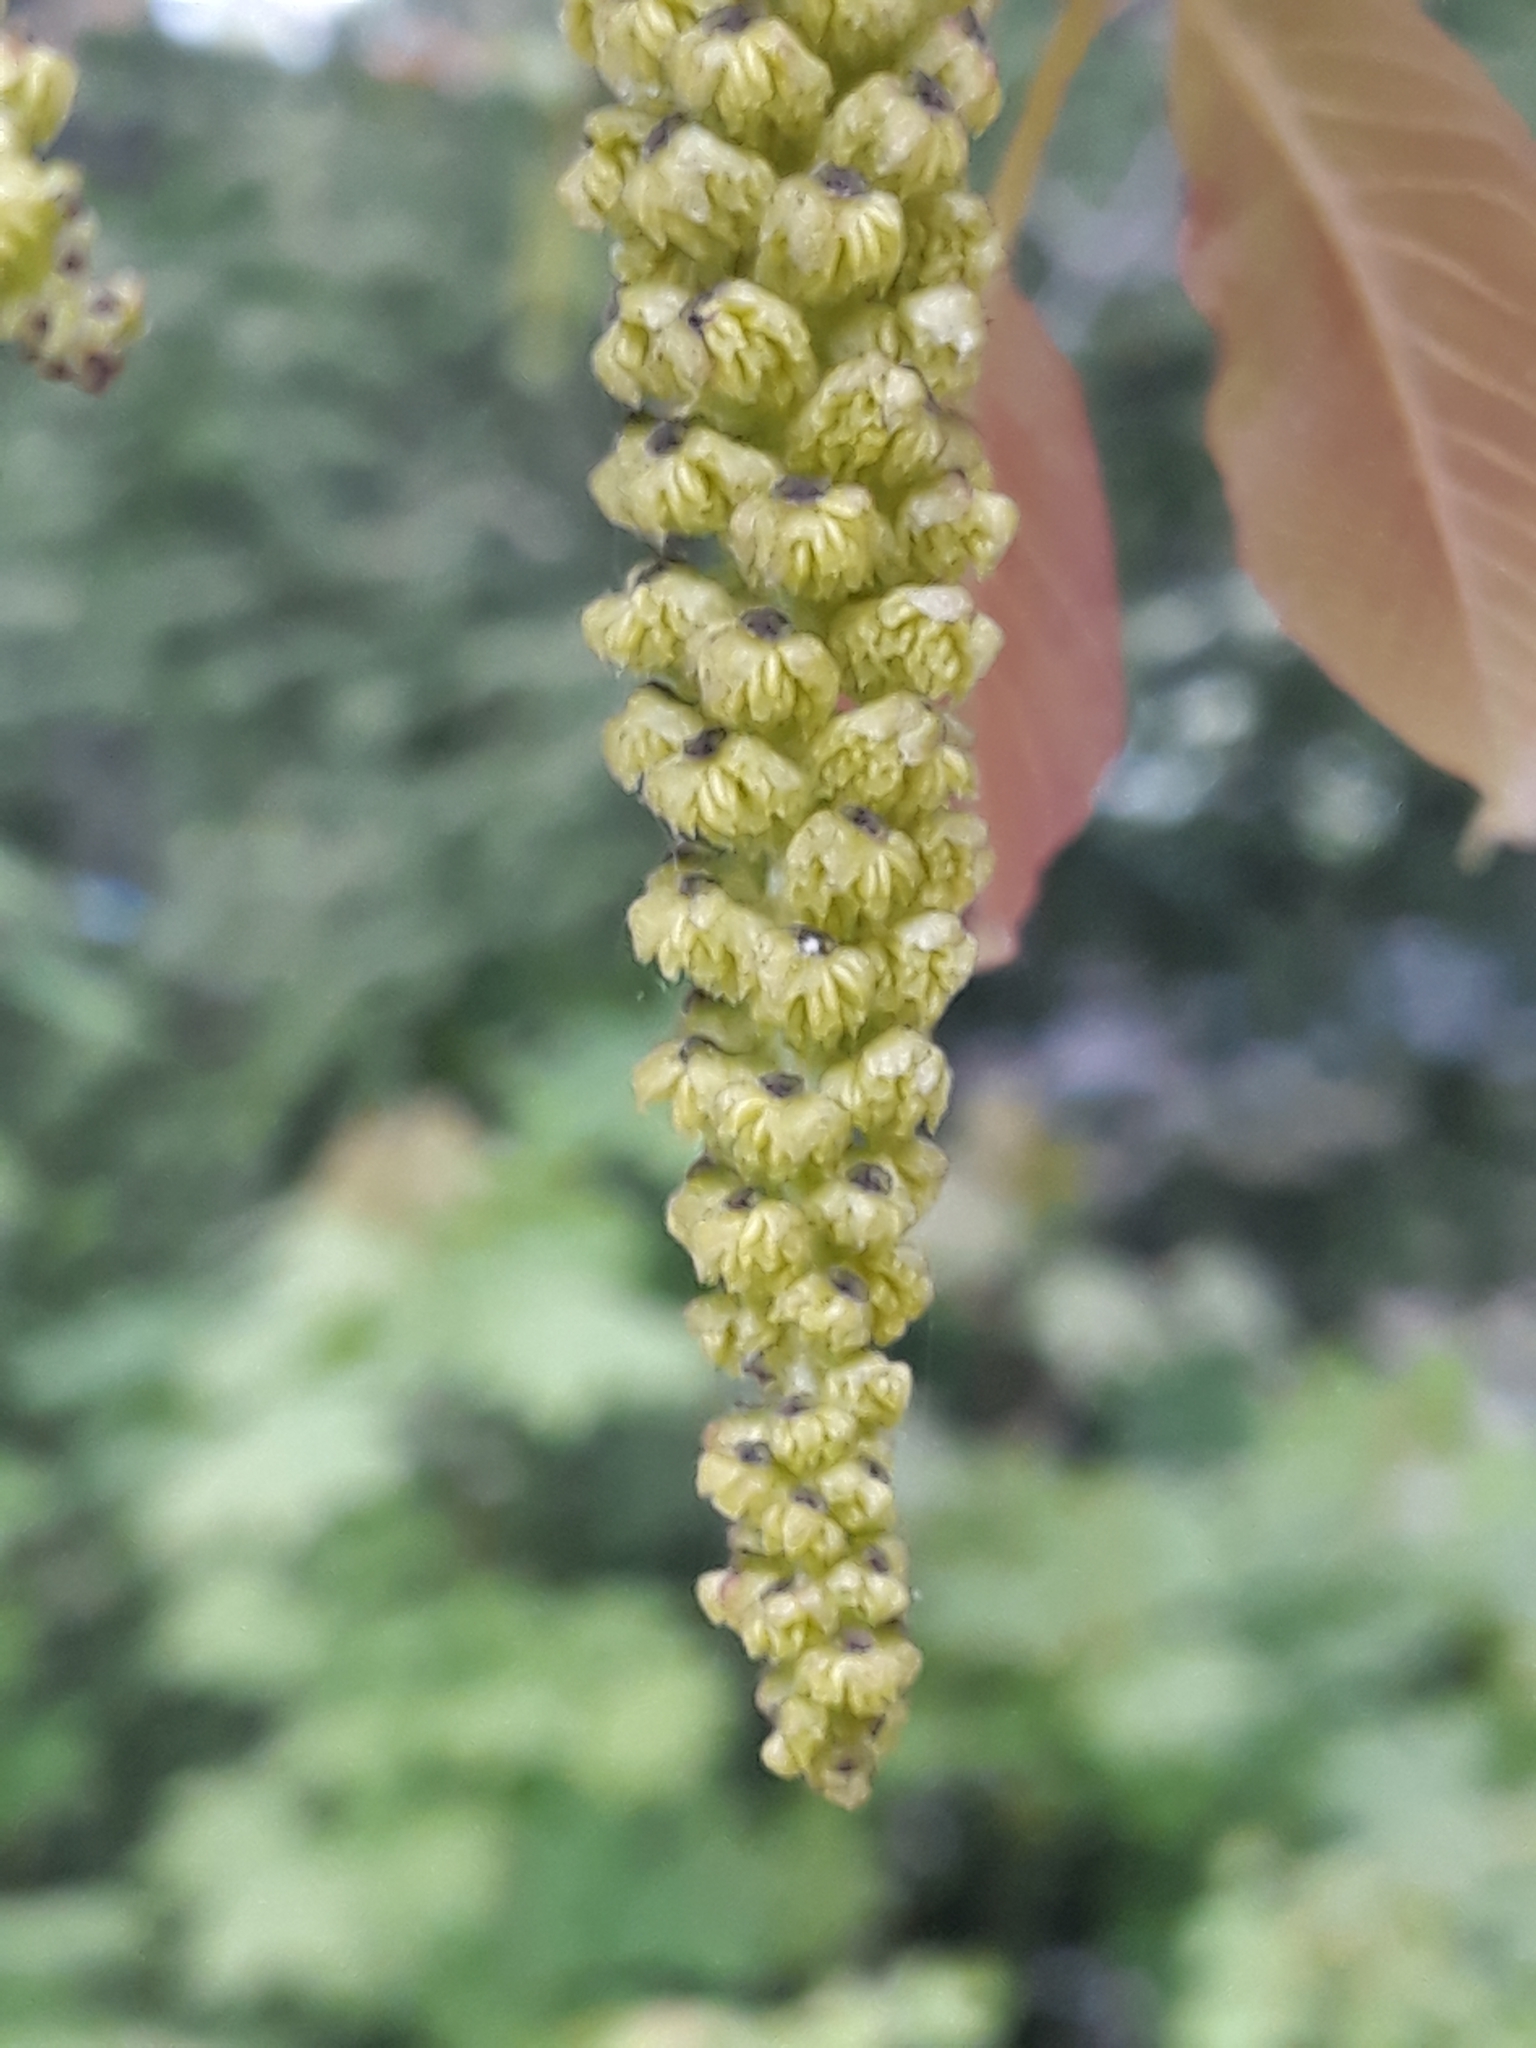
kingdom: Plantae
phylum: Tracheophyta
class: Magnoliopsida
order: Fagales
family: Juglandaceae
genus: Juglans
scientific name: Juglans regia
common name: Walnut
